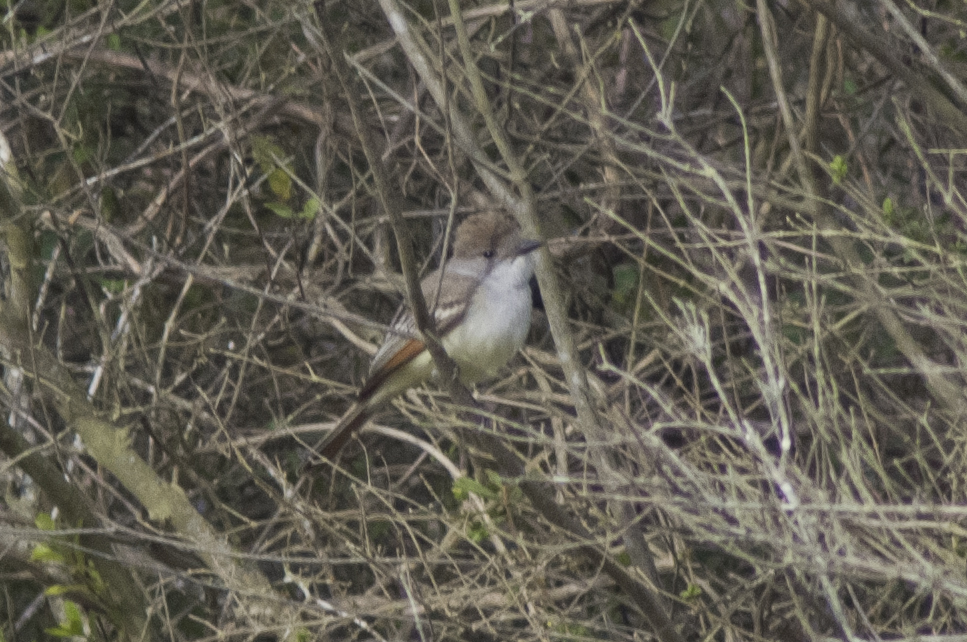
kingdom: Animalia
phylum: Chordata
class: Aves
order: Passeriformes
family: Tyrannidae
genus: Myiarchus
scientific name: Myiarchus cinerascens
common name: Ash-throated flycatcher
